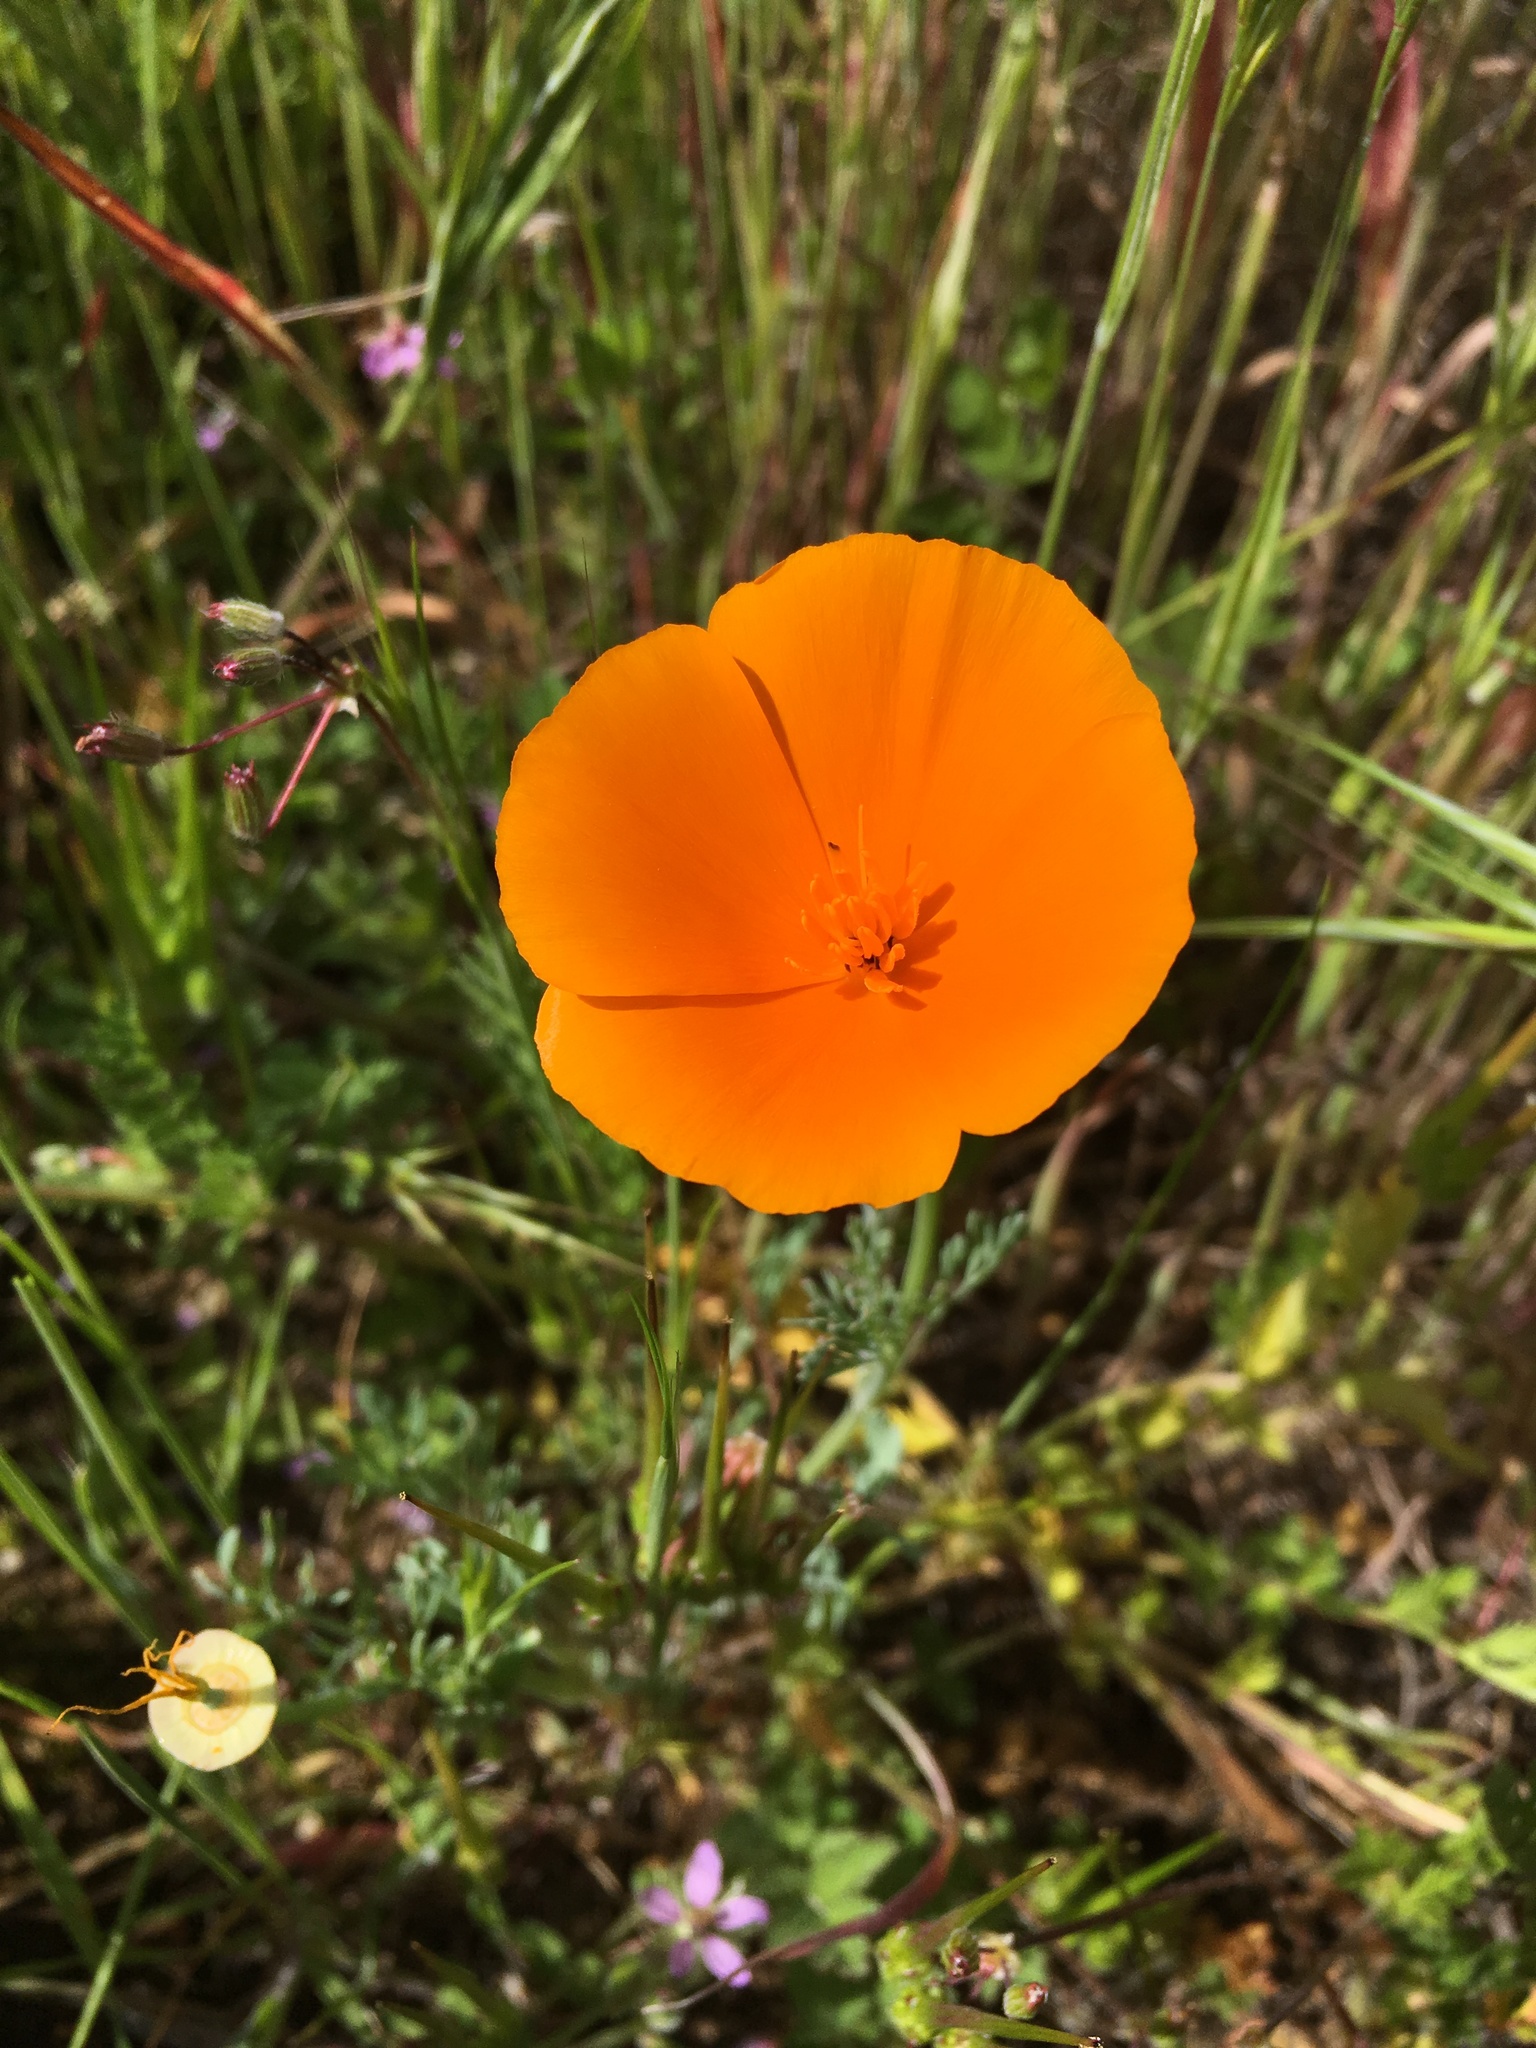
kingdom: Plantae
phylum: Tracheophyta
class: Magnoliopsida
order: Ranunculales
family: Papaveraceae
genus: Eschscholzia
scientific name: Eschscholzia californica
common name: California poppy
